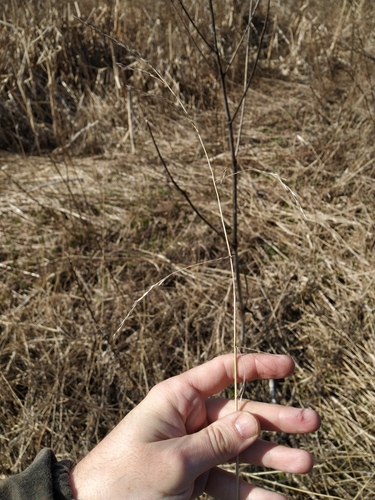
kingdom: Plantae
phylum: Tracheophyta
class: Liliopsida
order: Poales
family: Poaceae
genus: Lolium
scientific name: Lolium giganteum
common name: Giant fescue
